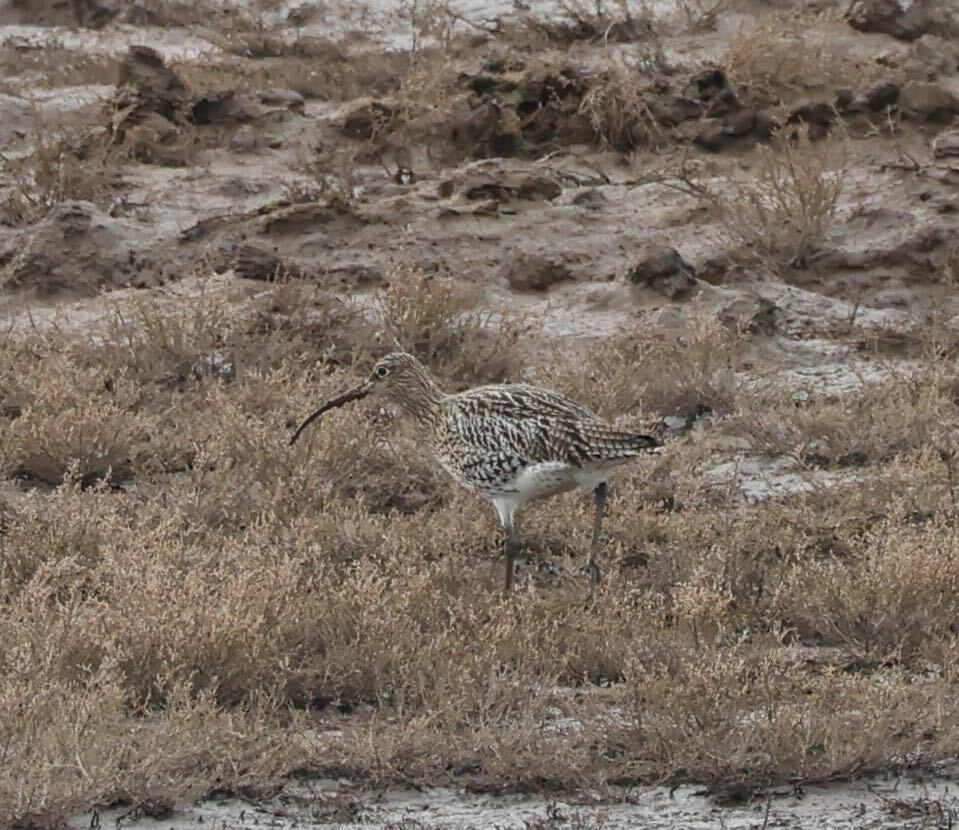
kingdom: Animalia
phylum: Chordata
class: Aves
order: Charadriiformes
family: Scolopacidae
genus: Numenius
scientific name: Numenius arquata
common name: Eurasian curlew
